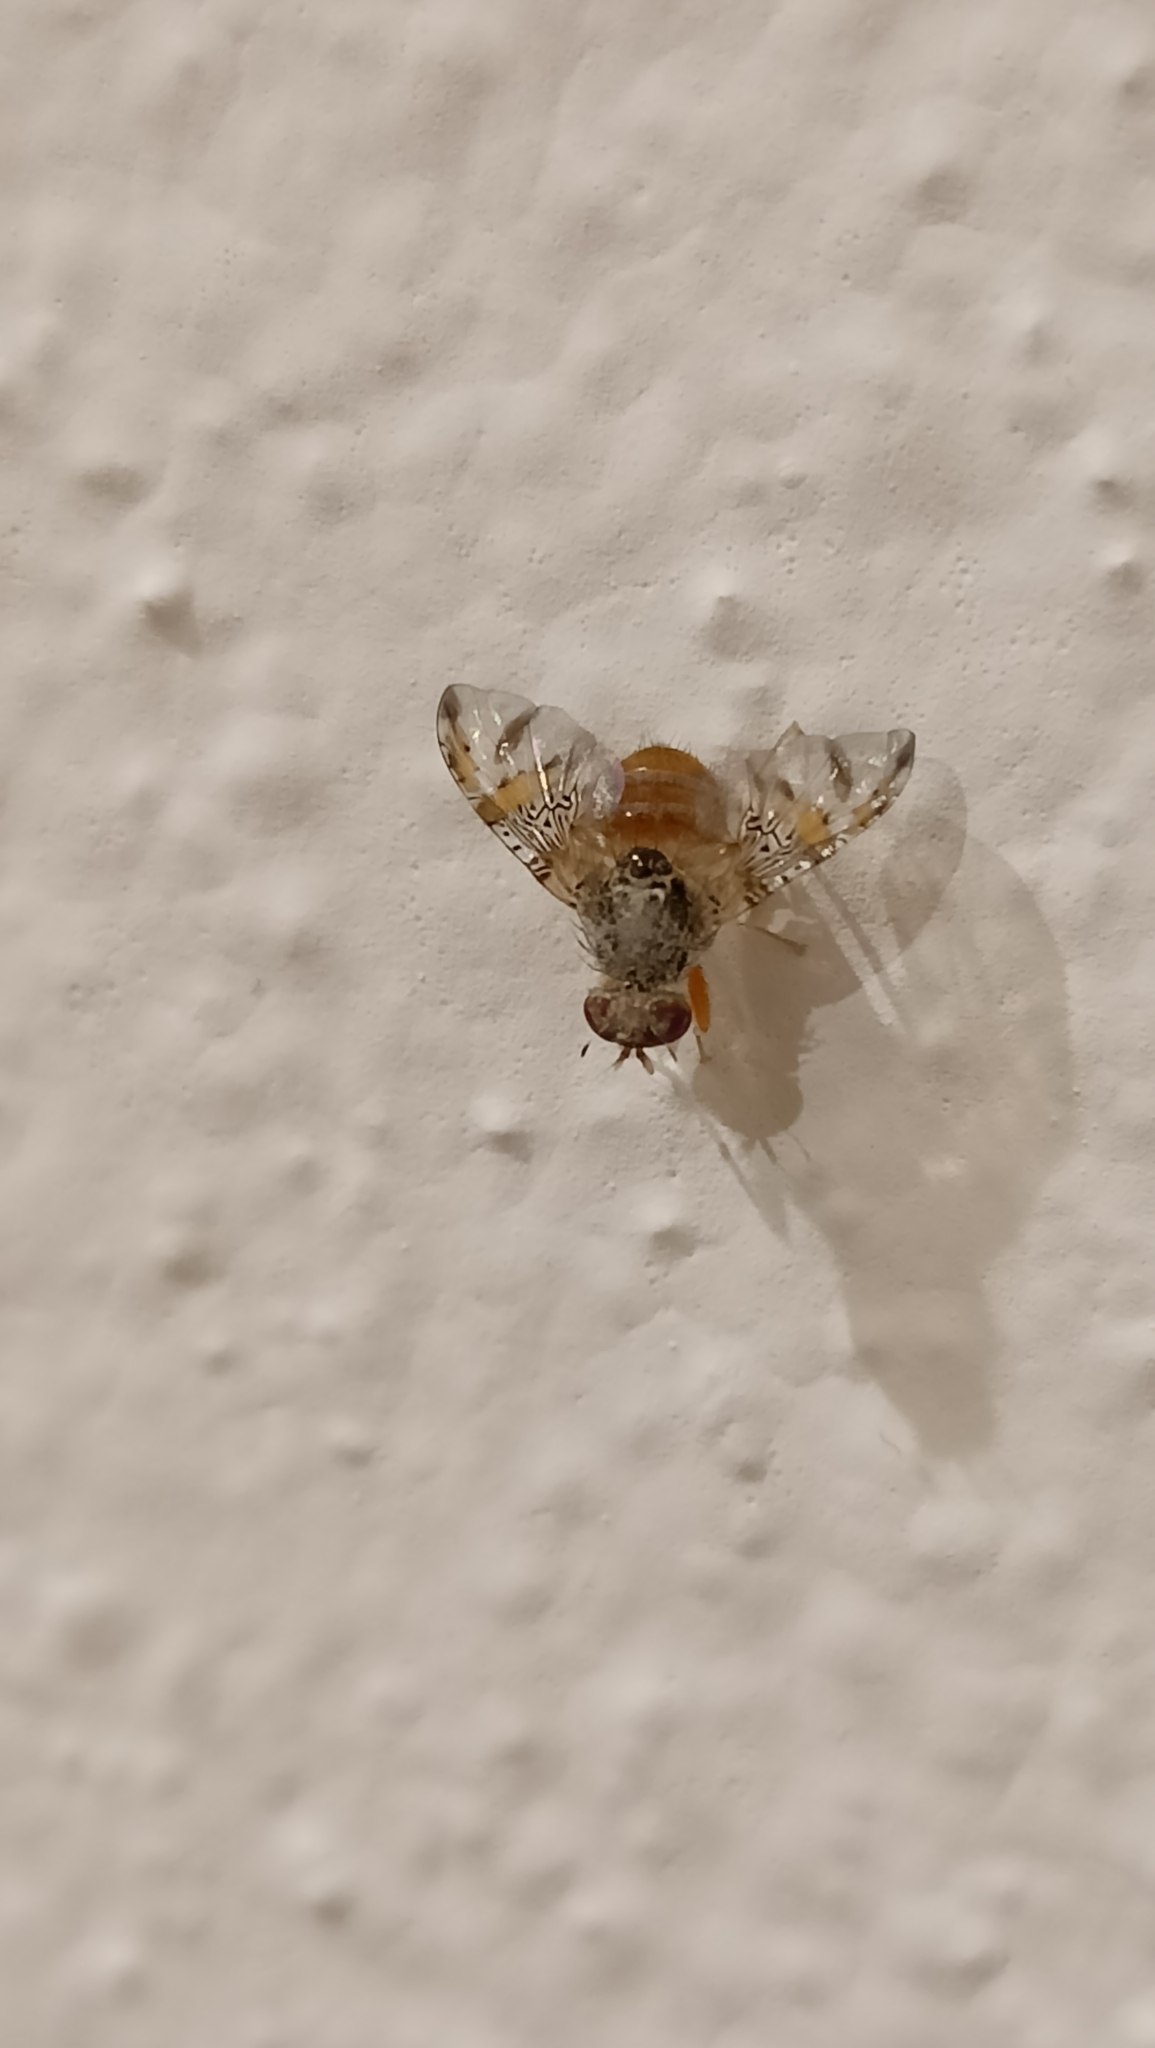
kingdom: Animalia
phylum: Arthropoda
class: Insecta
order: Diptera
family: Tephritidae
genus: Ceratitis
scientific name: Ceratitis capitata
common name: Mediterranean fruit fly
